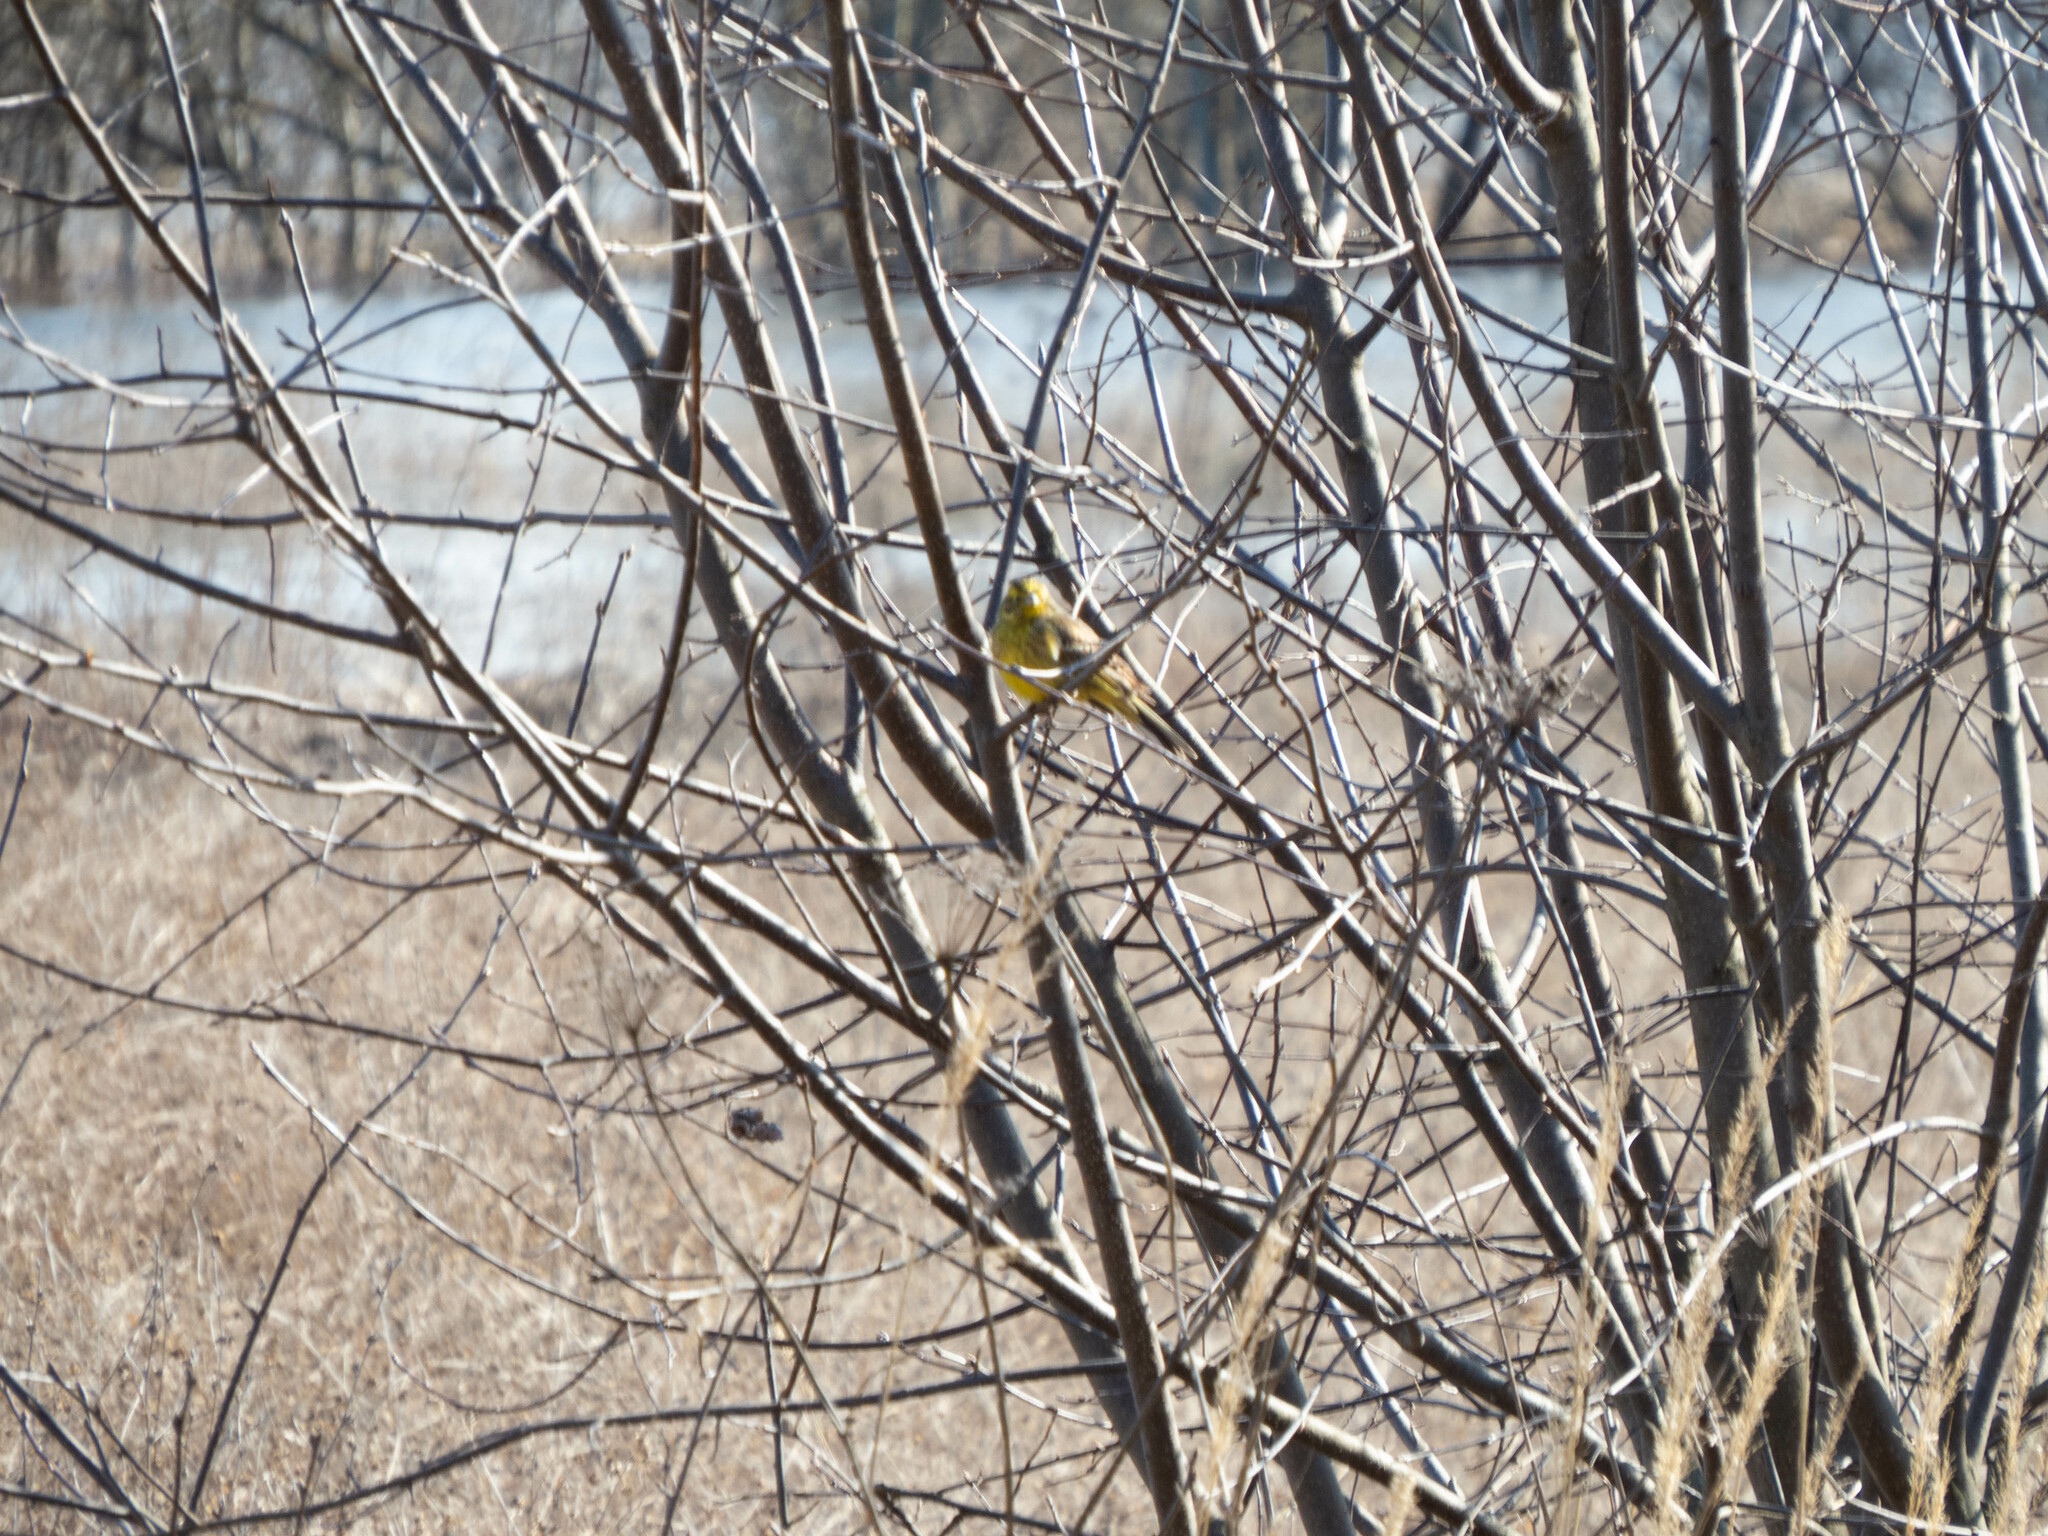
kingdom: Animalia
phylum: Chordata
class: Aves
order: Passeriformes
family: Emberizidae
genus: Emberiza
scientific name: Emberiza citrinella
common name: Yellowhammer
